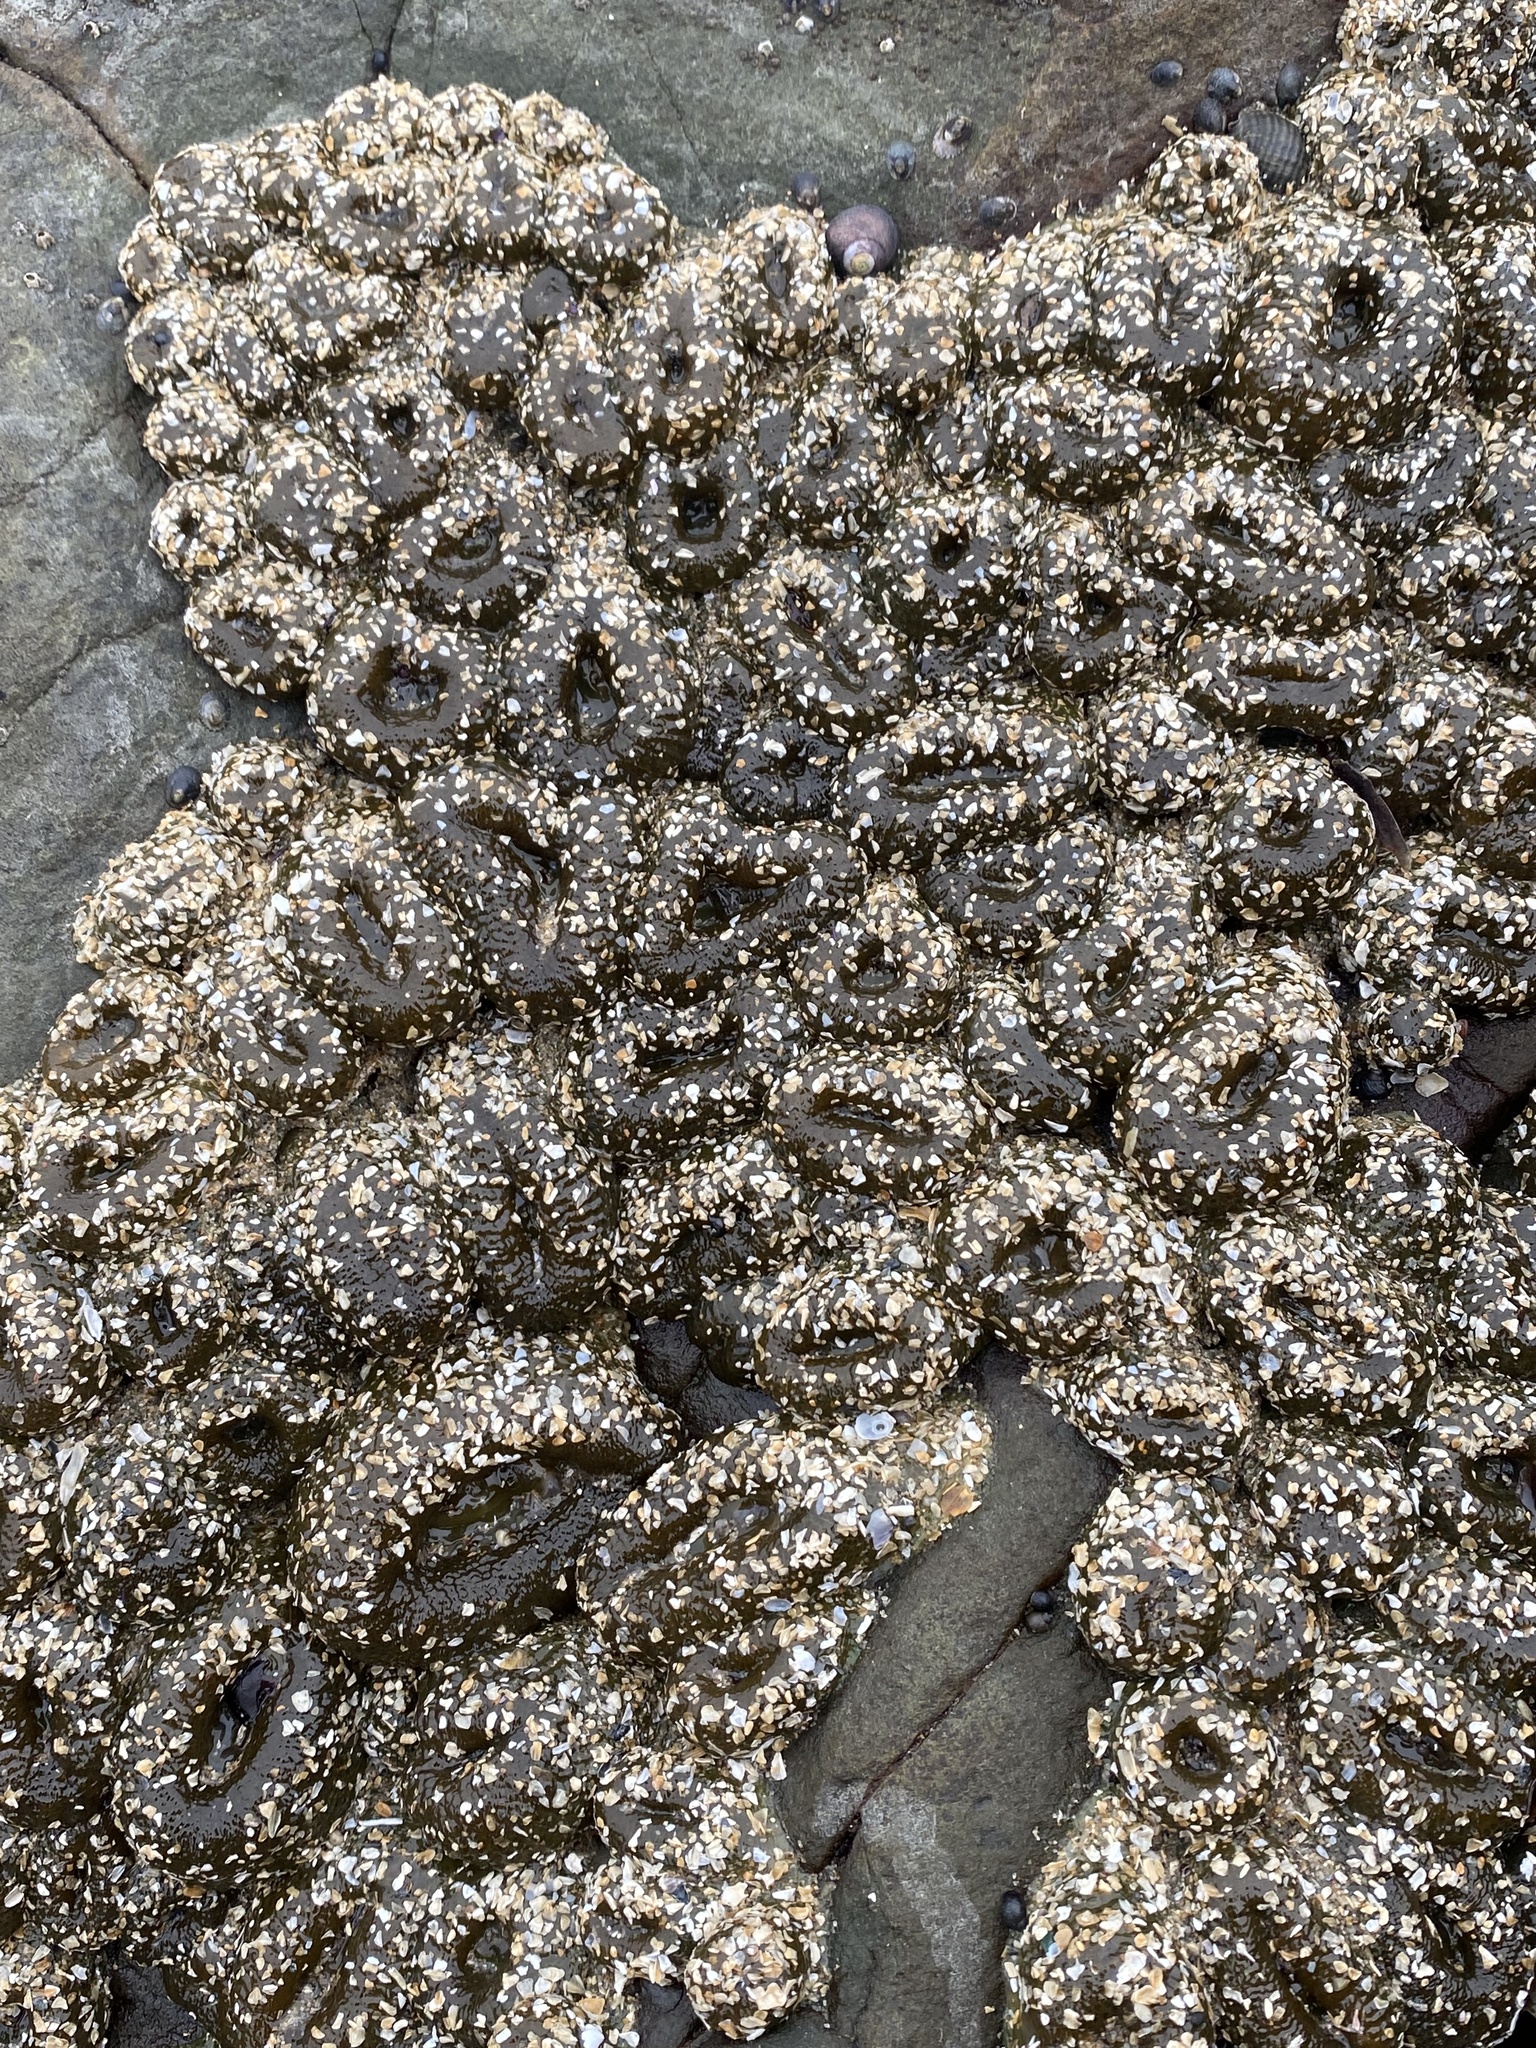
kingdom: Animalia
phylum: Cnidaria
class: Anthozoa
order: Actiniaria
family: Actiniidae
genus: Anthopleura
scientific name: Anthopleura elegantissima
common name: Clonal anemone
